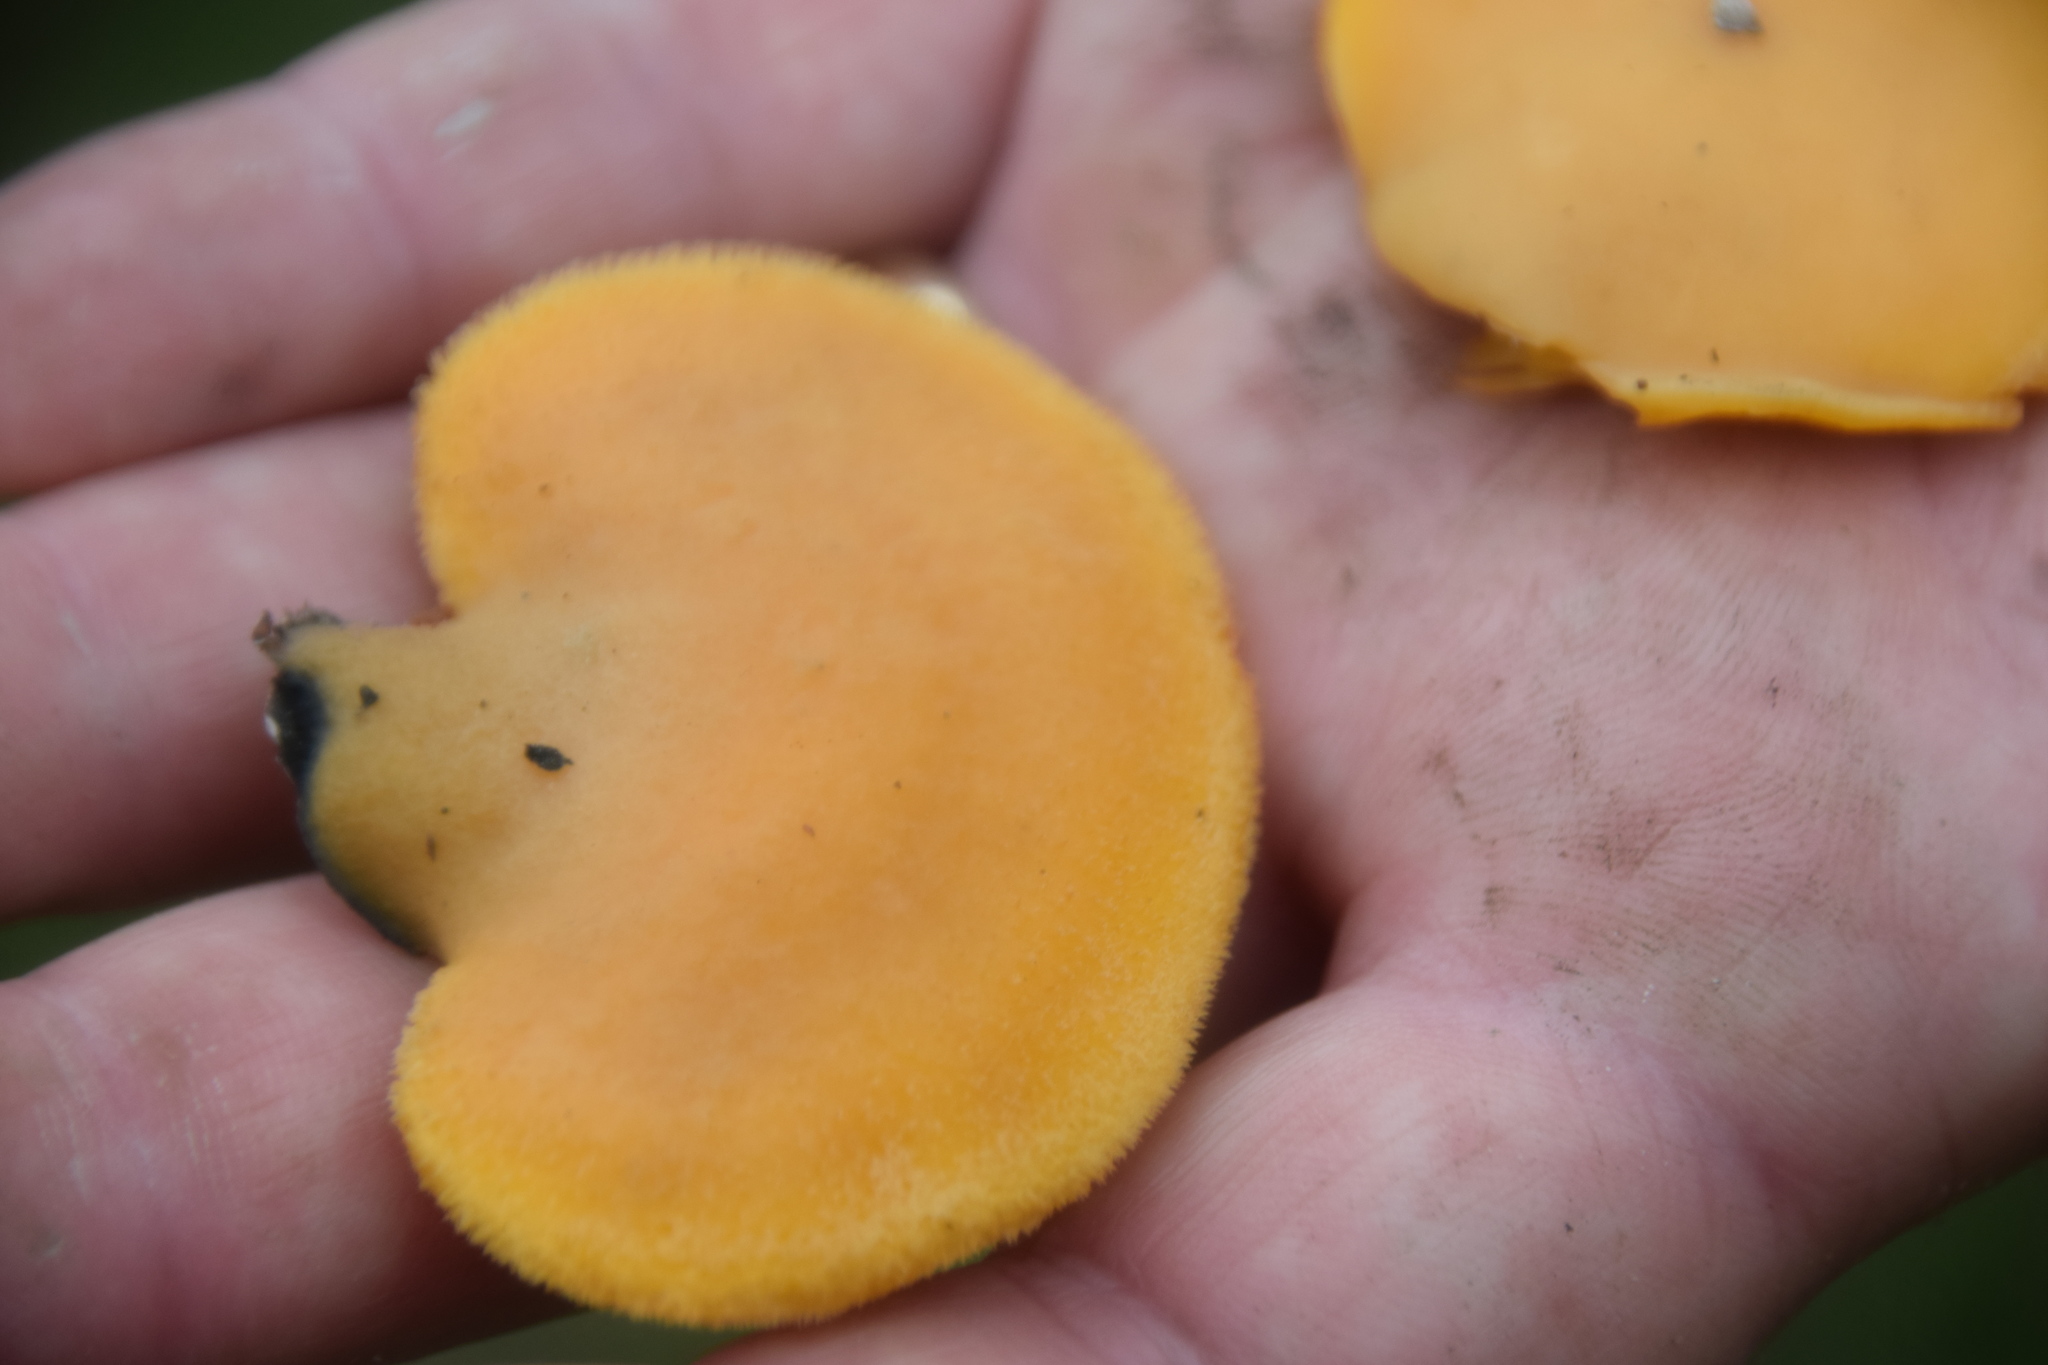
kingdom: Fungi
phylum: Basidiomycota
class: Agaricomycetes
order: Agaricales
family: Phyllotopsidaceae
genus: Phyllotopsis
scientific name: Phyllotopsis nidulans
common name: Orange mock oyster
